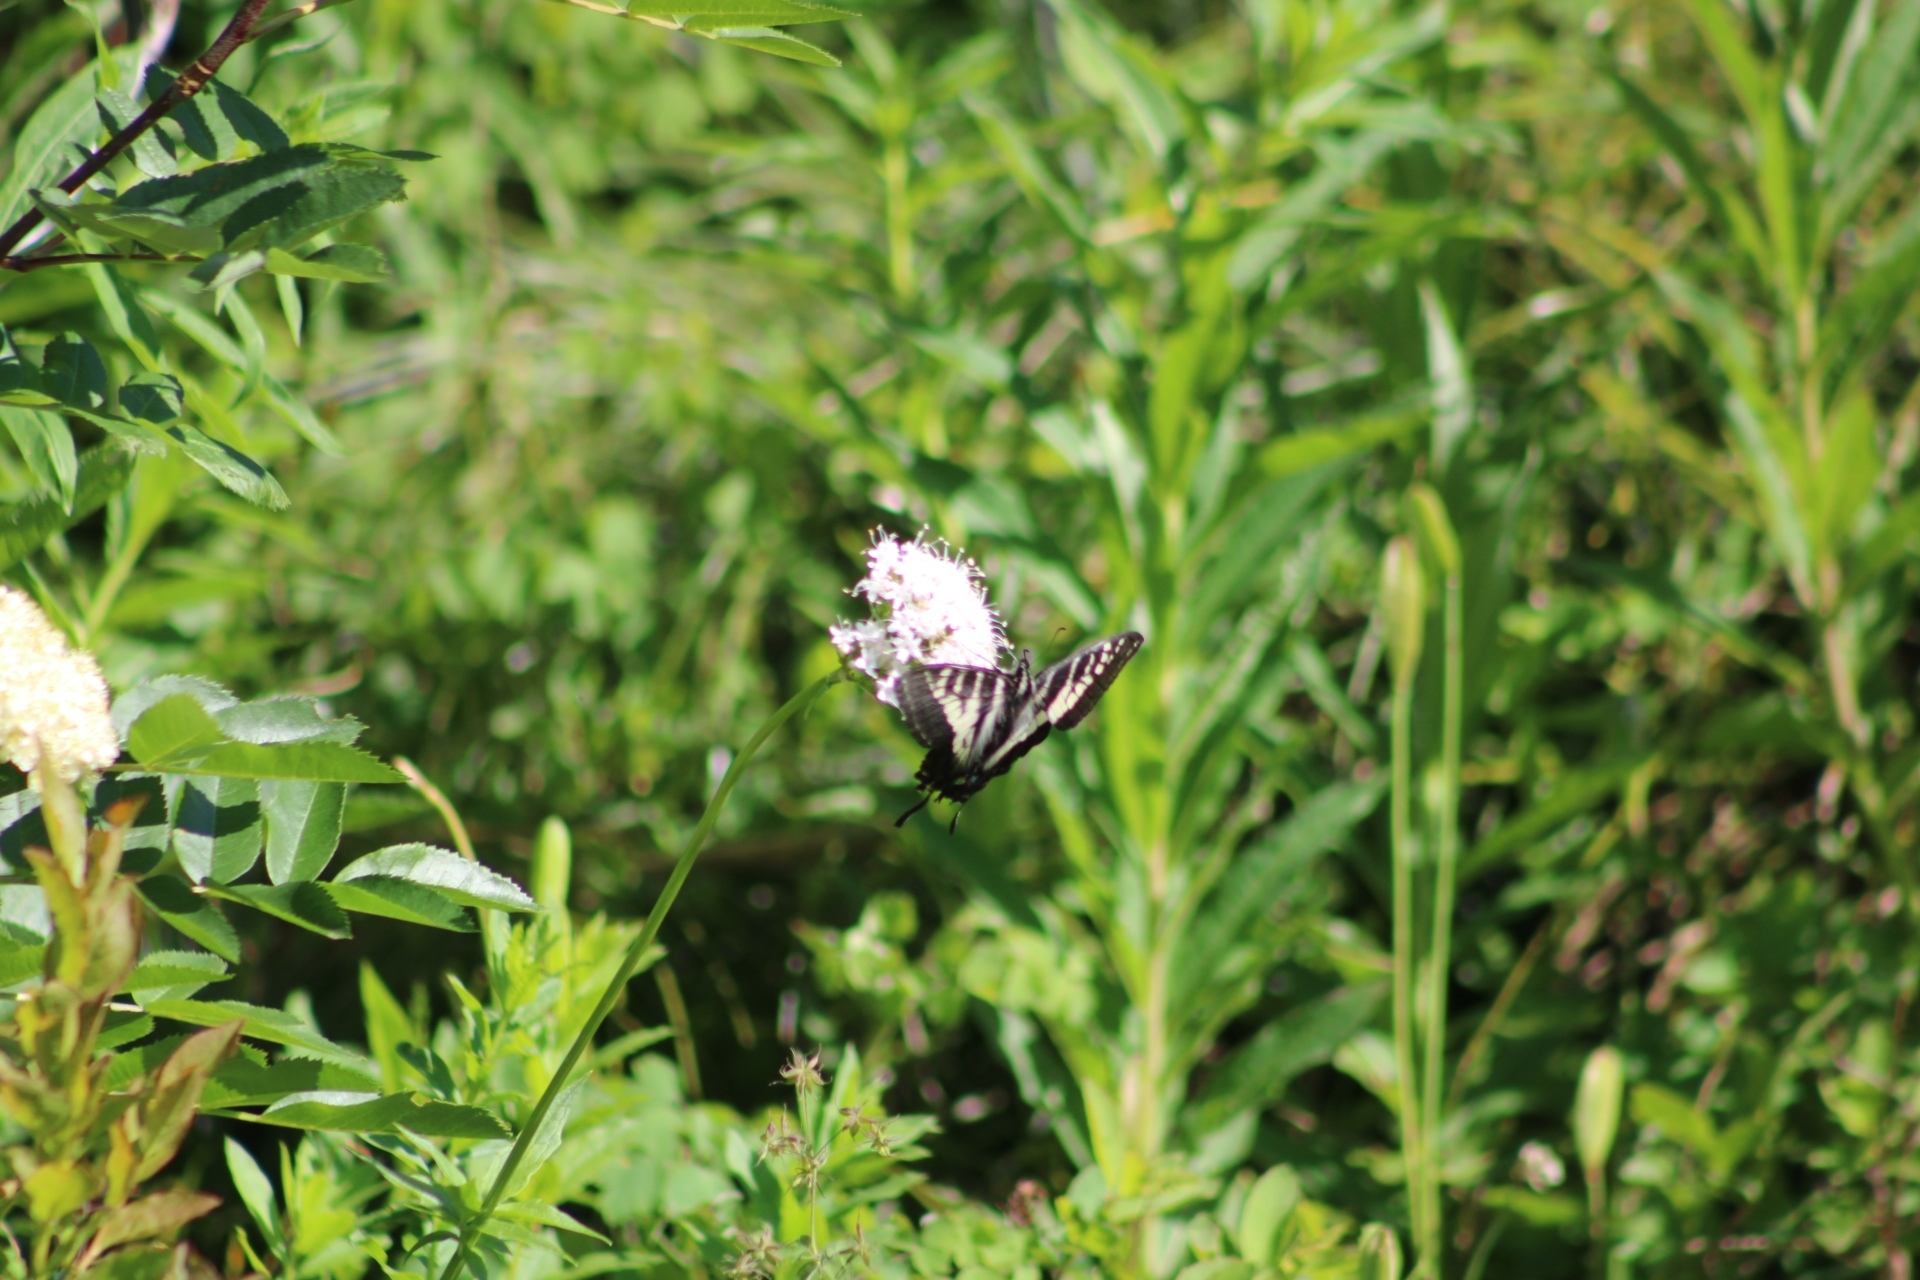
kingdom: Animalia
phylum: Arthropoda
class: Insecta
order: Lepidoptera
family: Papilionidae
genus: Papilio
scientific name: Papilio eurymedon
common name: Pale tiger swallowtail
